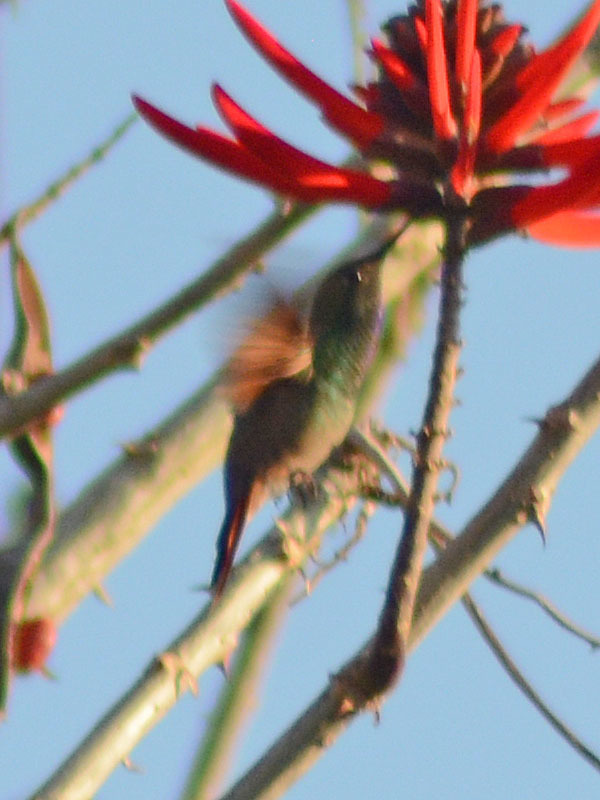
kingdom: Animalia
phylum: Chordata
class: Aves
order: Apodiformes
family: Trochilidae
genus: Saucerottia
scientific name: Saucerottia beryllina
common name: Berylline hummingbird
